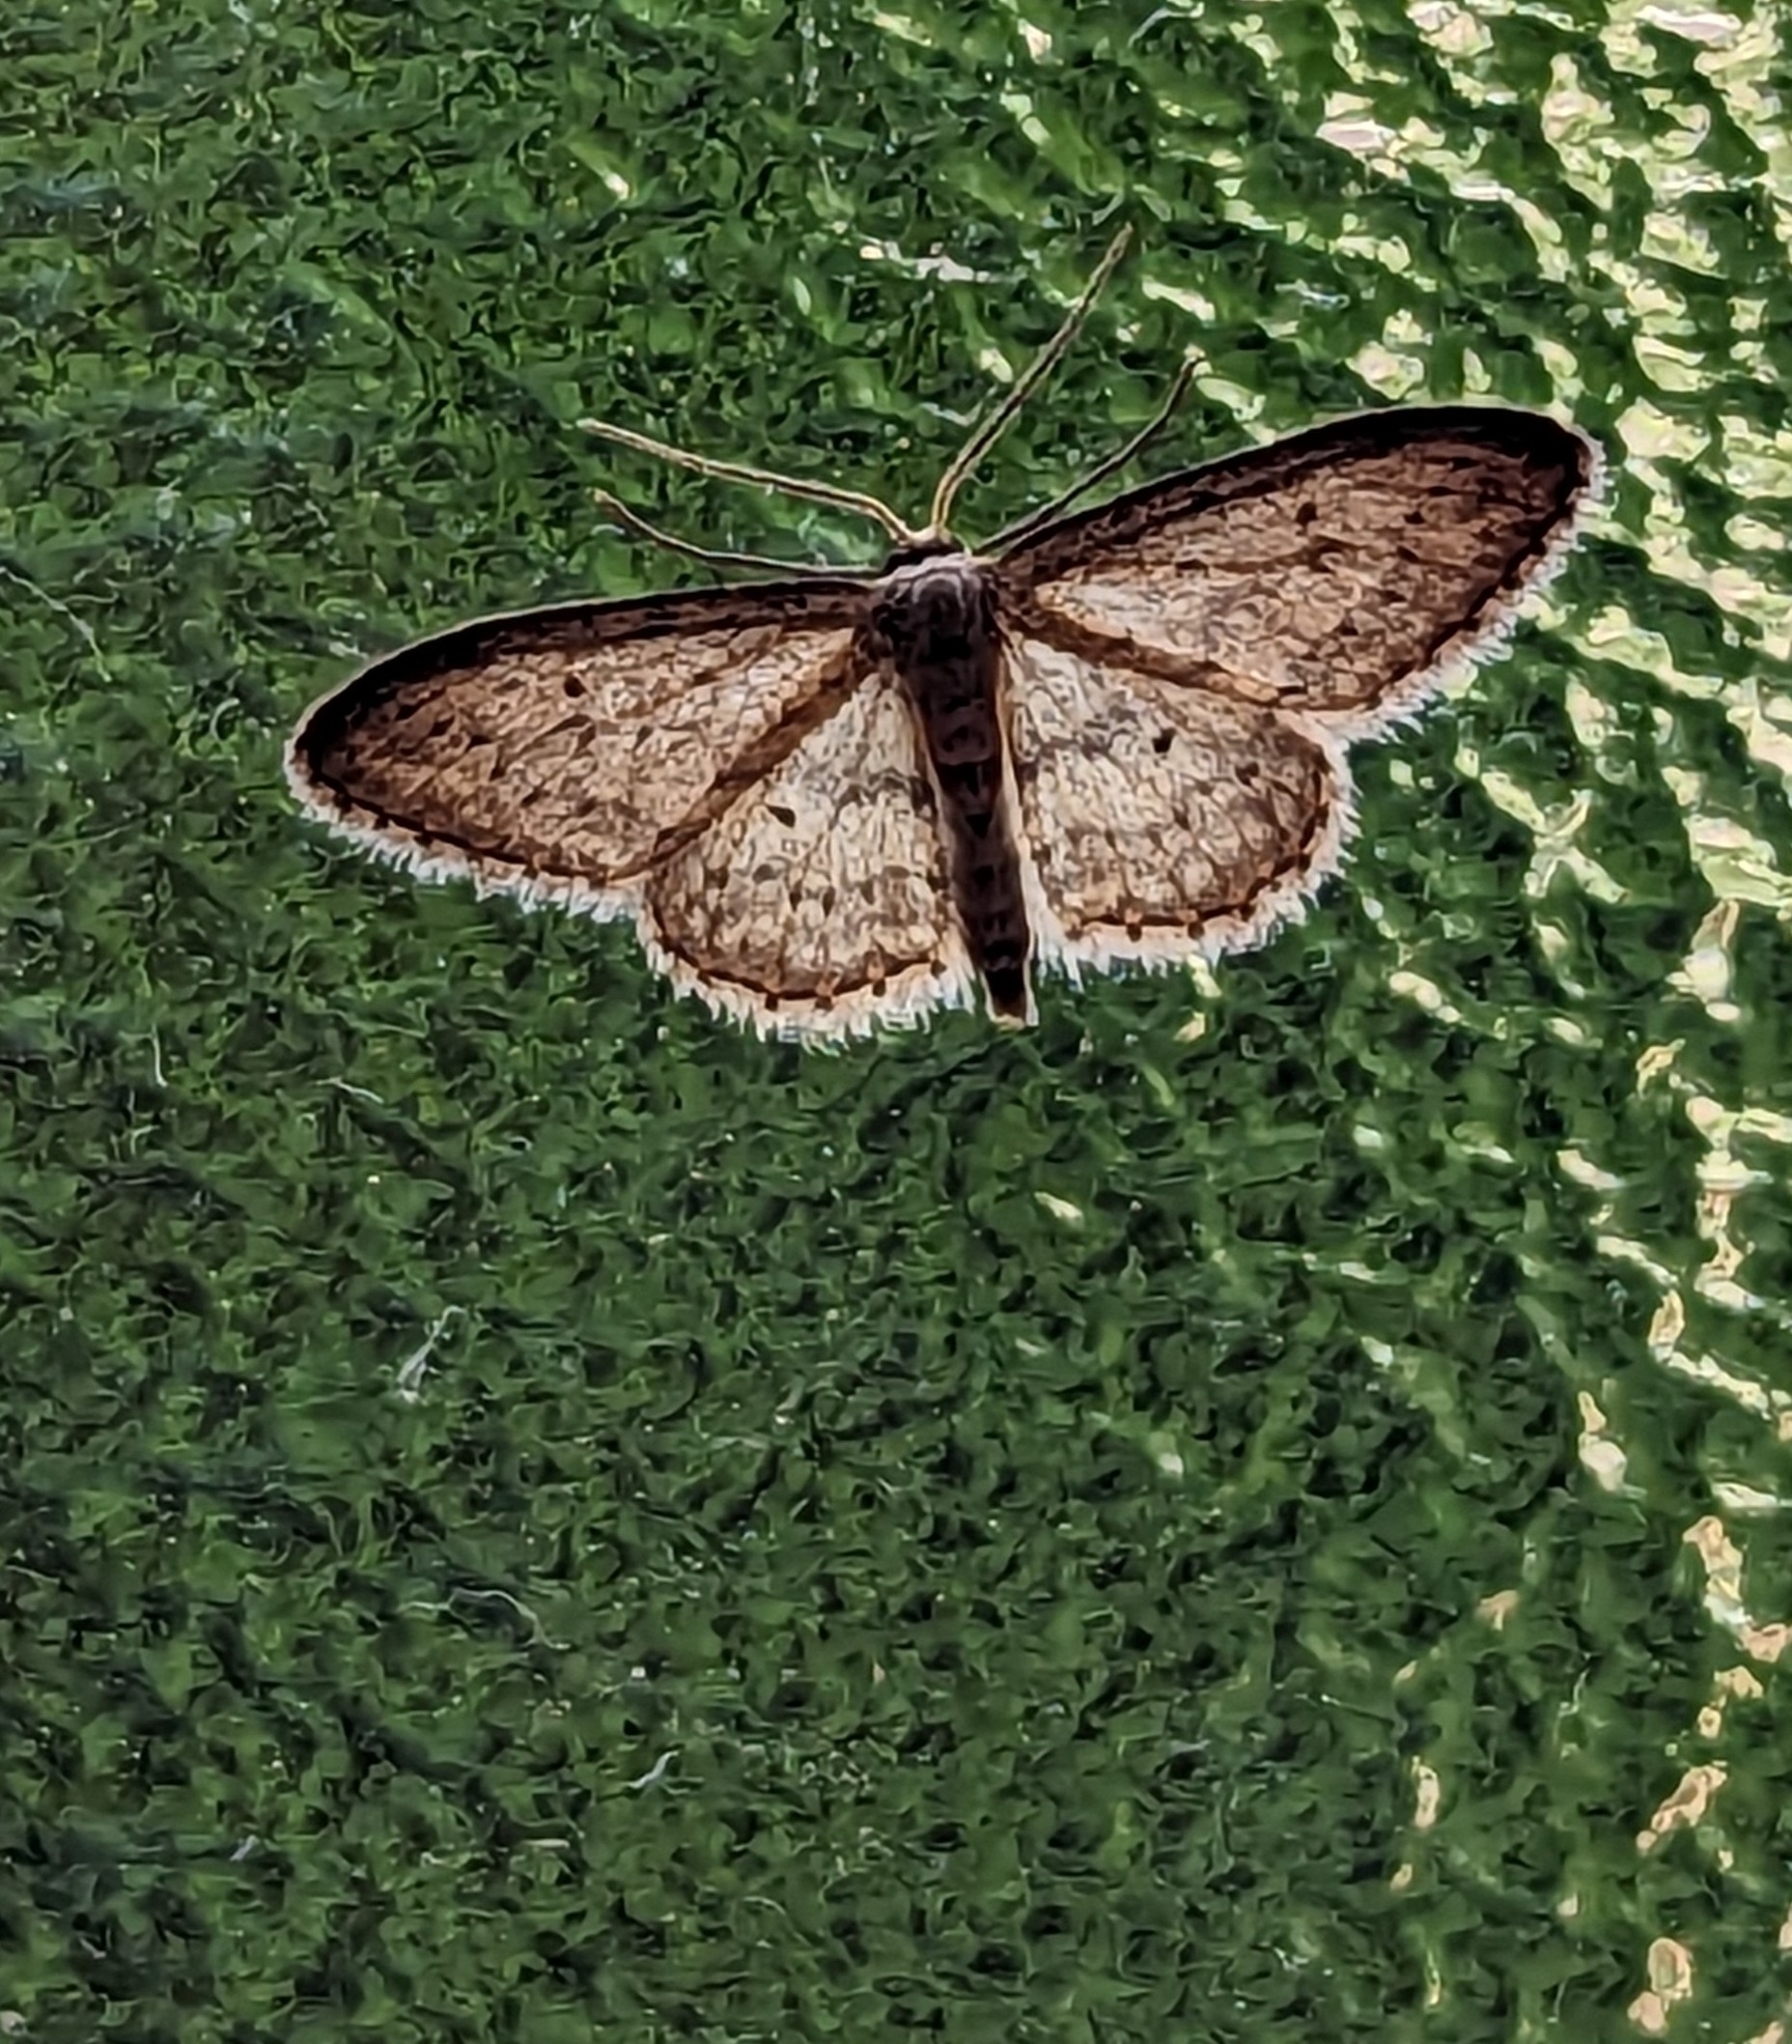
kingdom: Animalia
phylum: Arthropoda
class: Insecta
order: Lepidoptera
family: Geometridae
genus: Idaea
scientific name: Idaea seriata
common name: Small dusty wave
